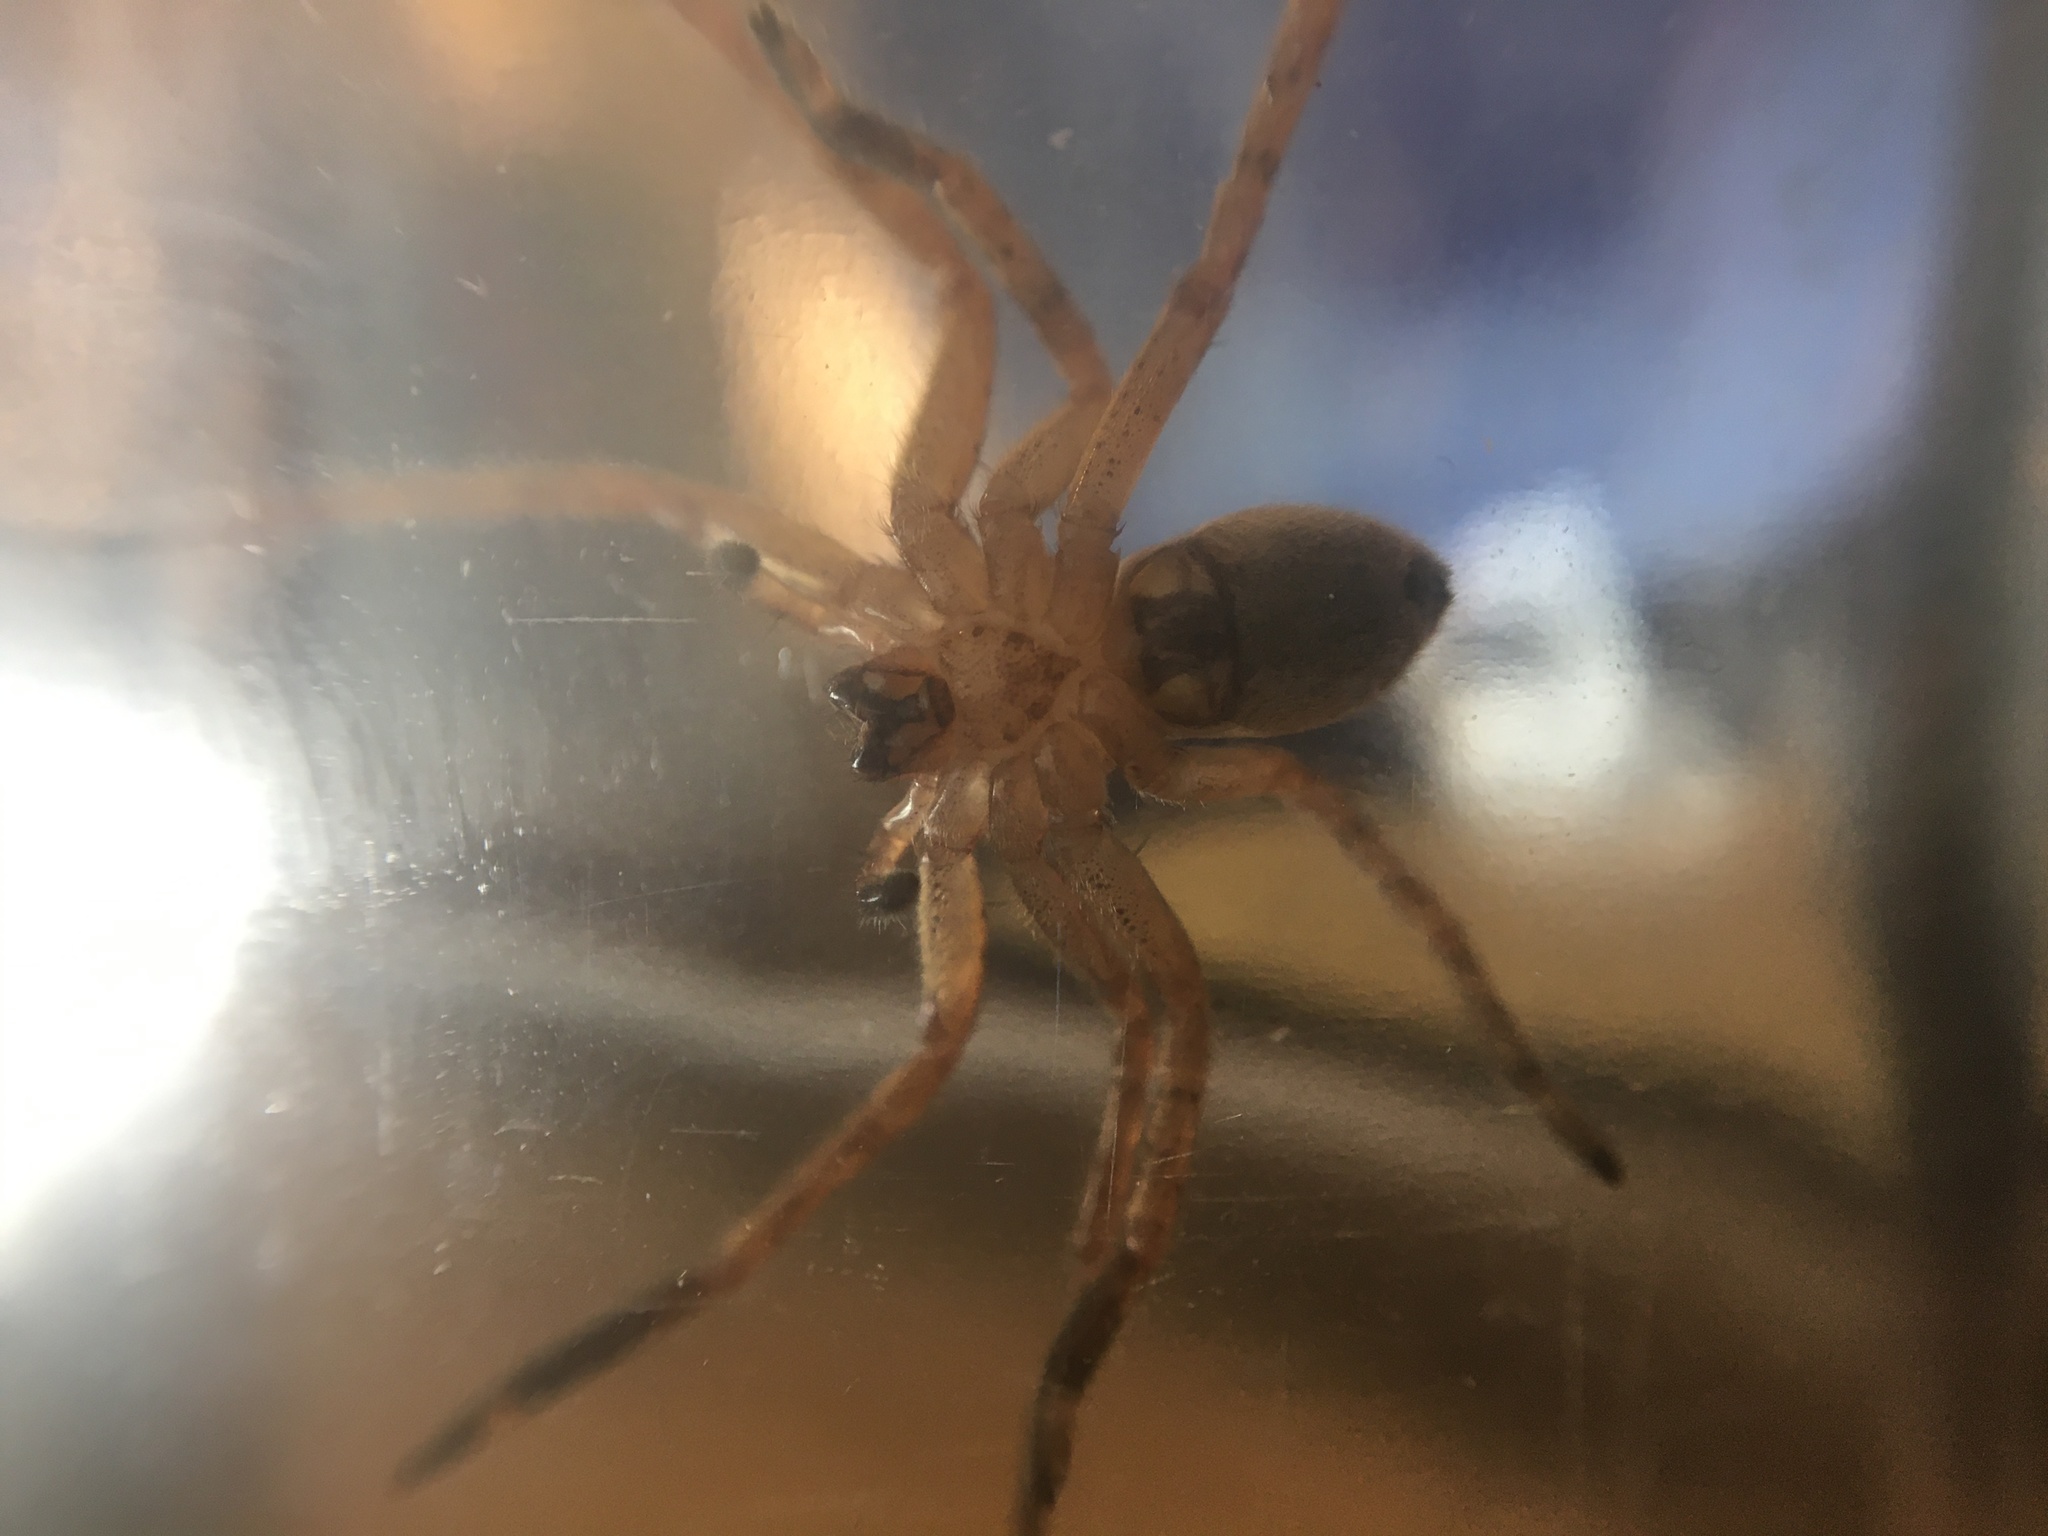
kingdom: Animalia
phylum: Arthropoda
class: Arachnida
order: Araneae
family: Sparassidae
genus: Olios
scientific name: Olios argelasius
